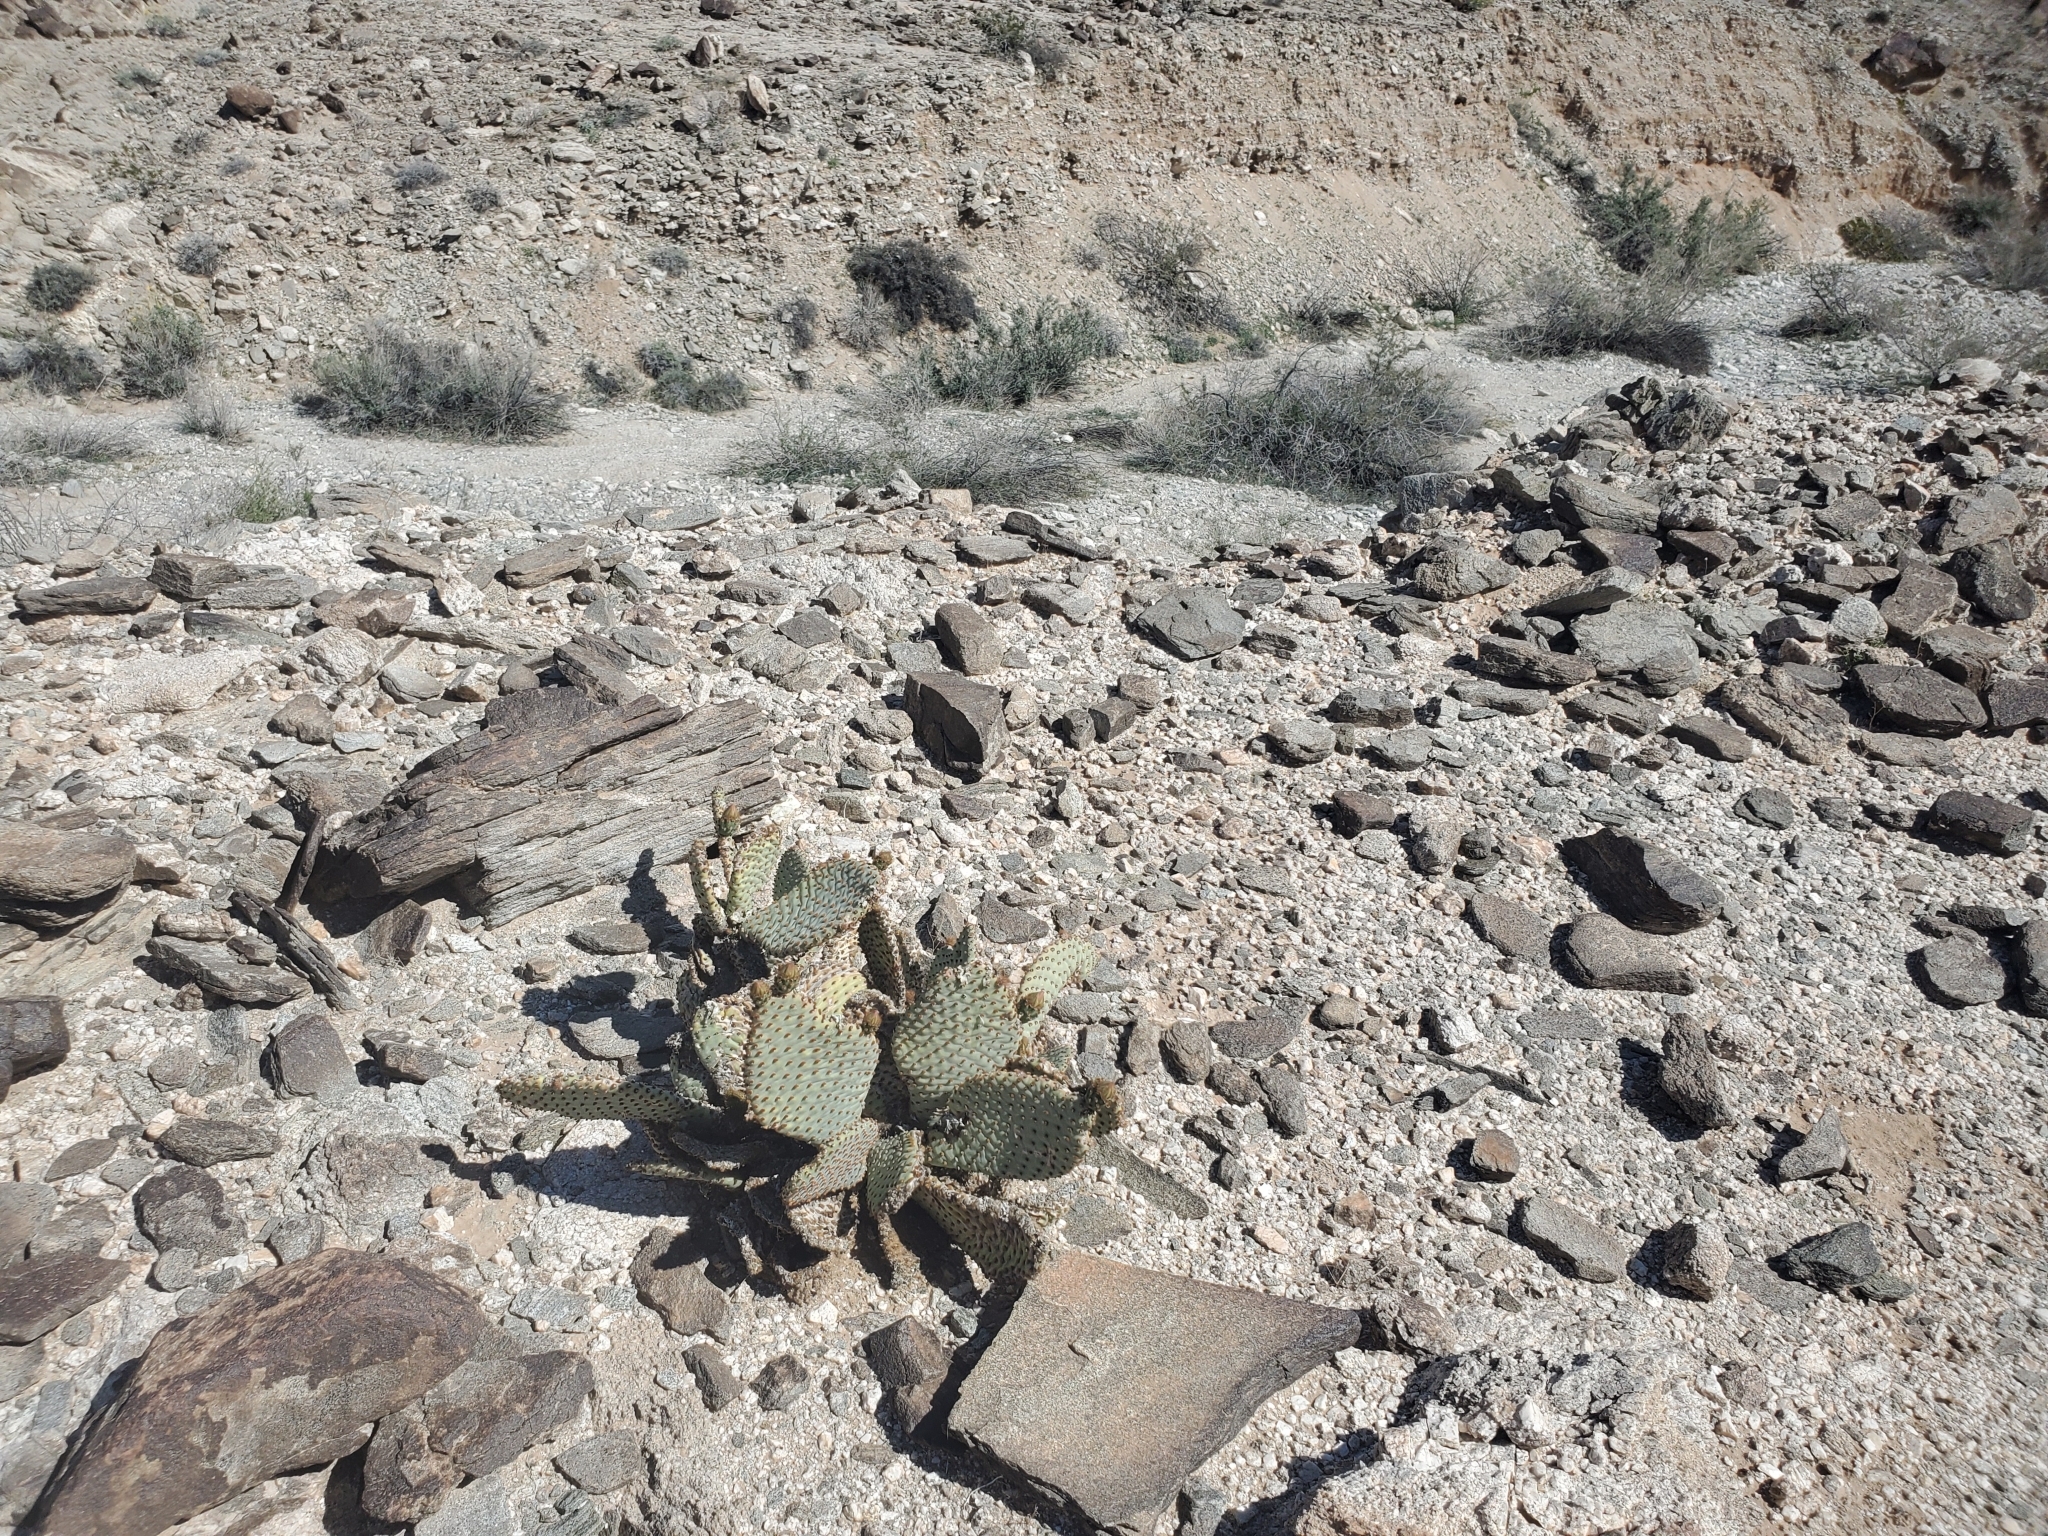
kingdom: Plantae
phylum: Tracheophyta
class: Magnoliopsida
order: Caryophyllales
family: Cactaceae
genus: Opuntia
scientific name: Opuntia basilaris
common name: Beavertail prickly-pear
